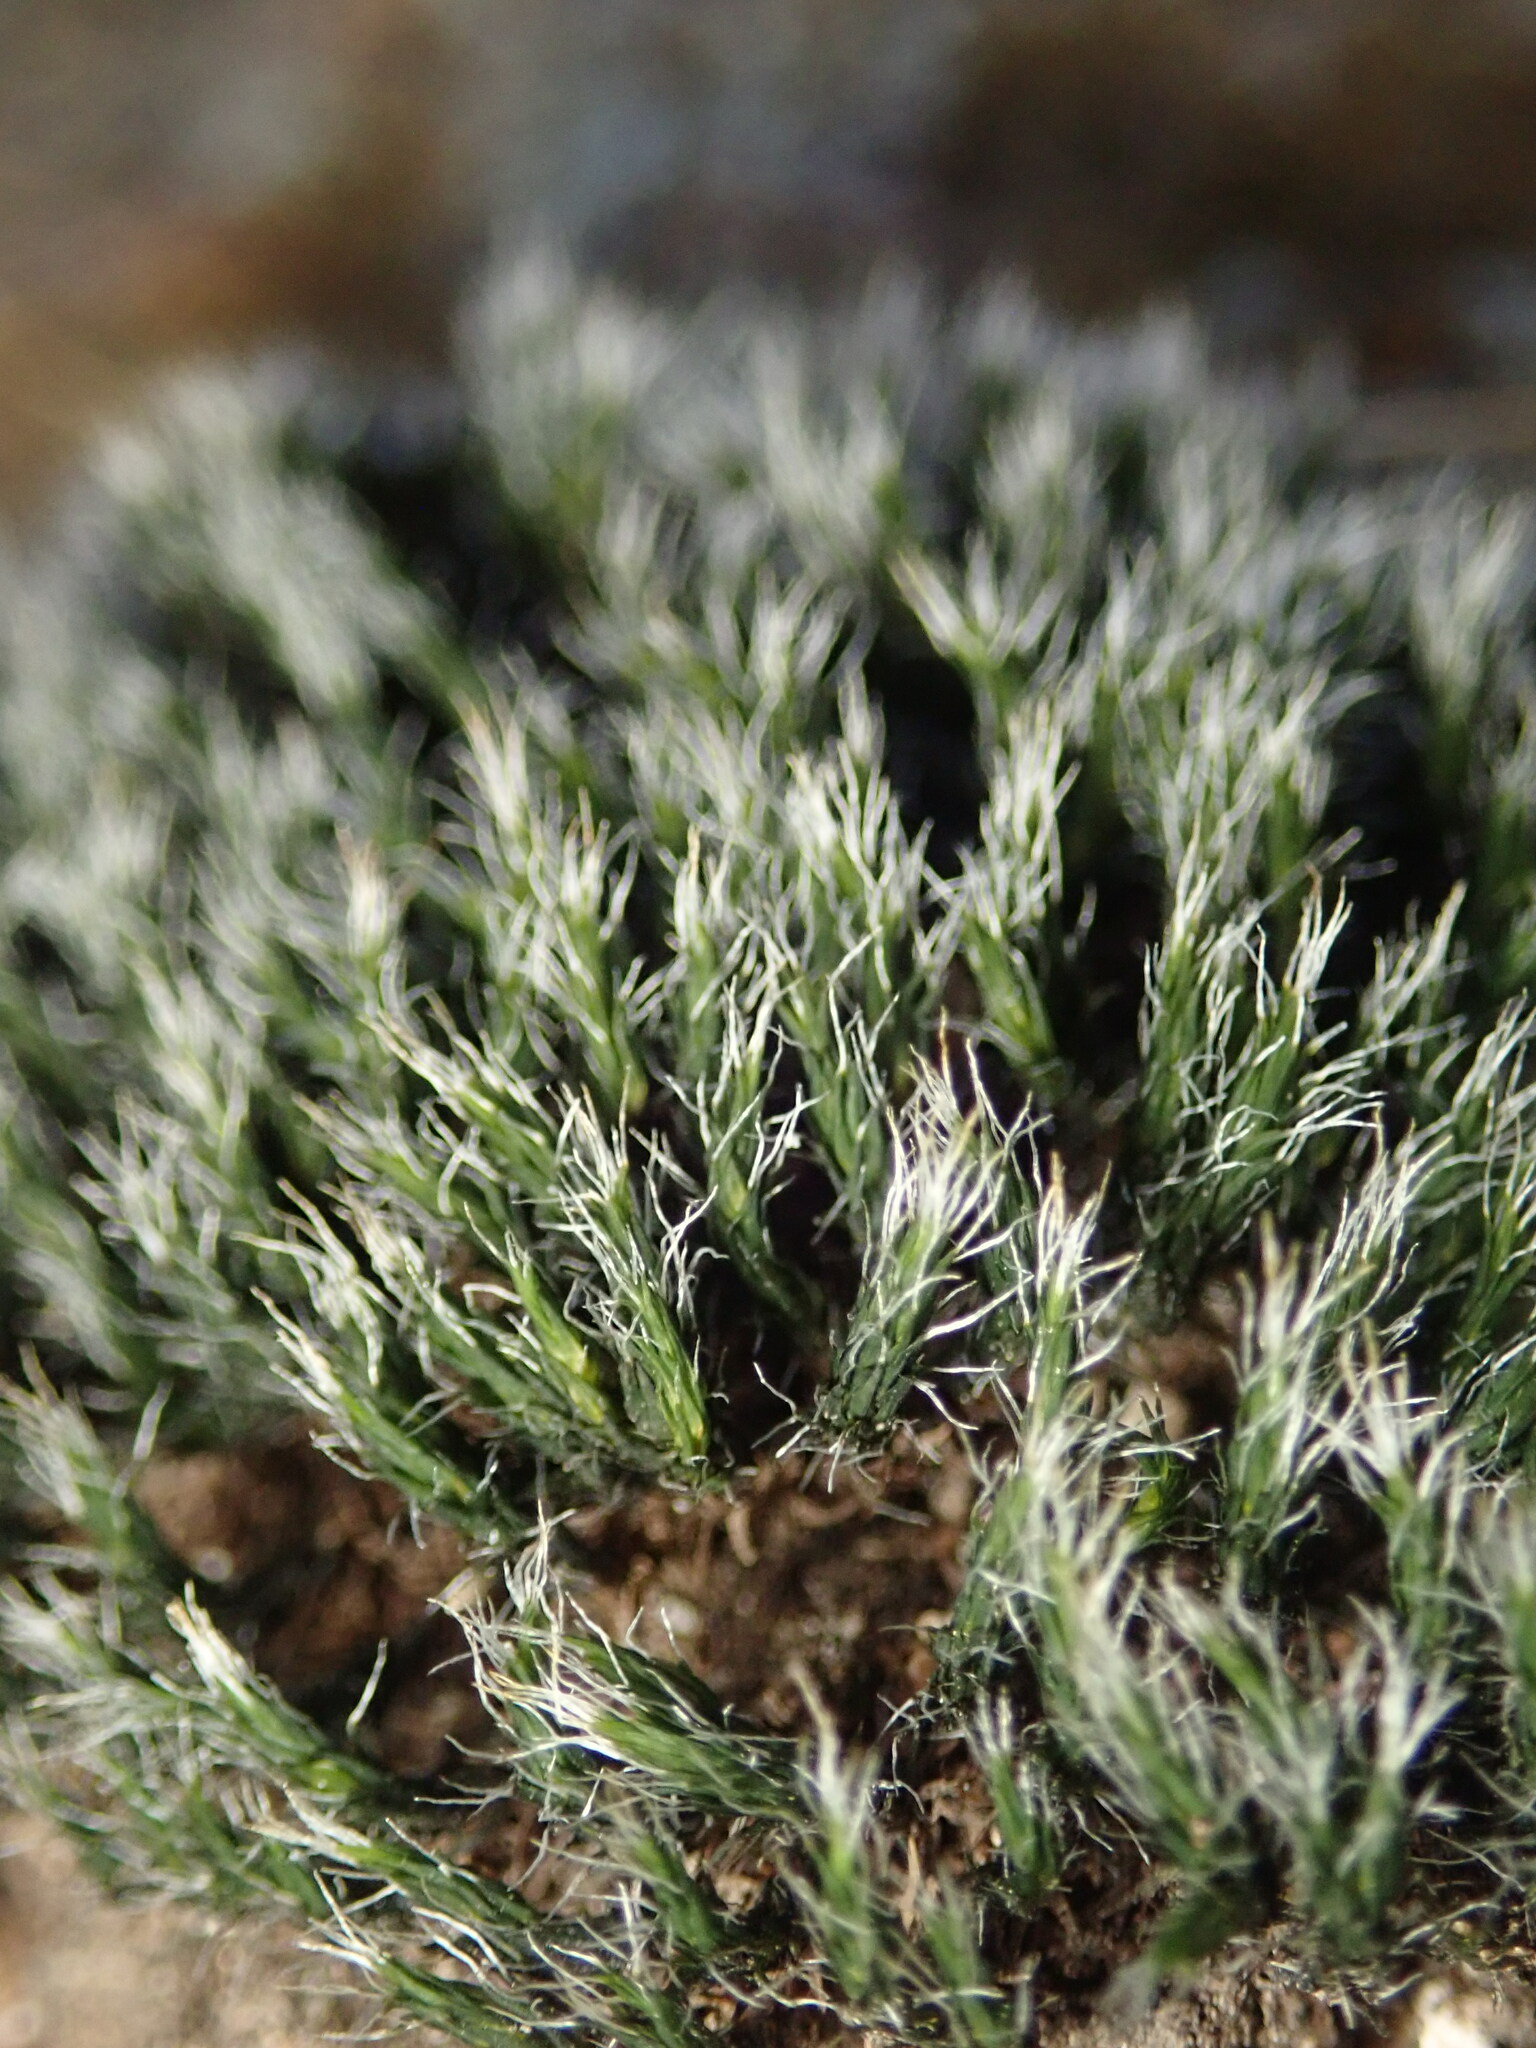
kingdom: Plantae
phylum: Bryophyta
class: Bryopsida
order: Grimmiales
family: Grimmiaceae
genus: Grimmia
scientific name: Grimmia laevigata
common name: Hoary grimmia
